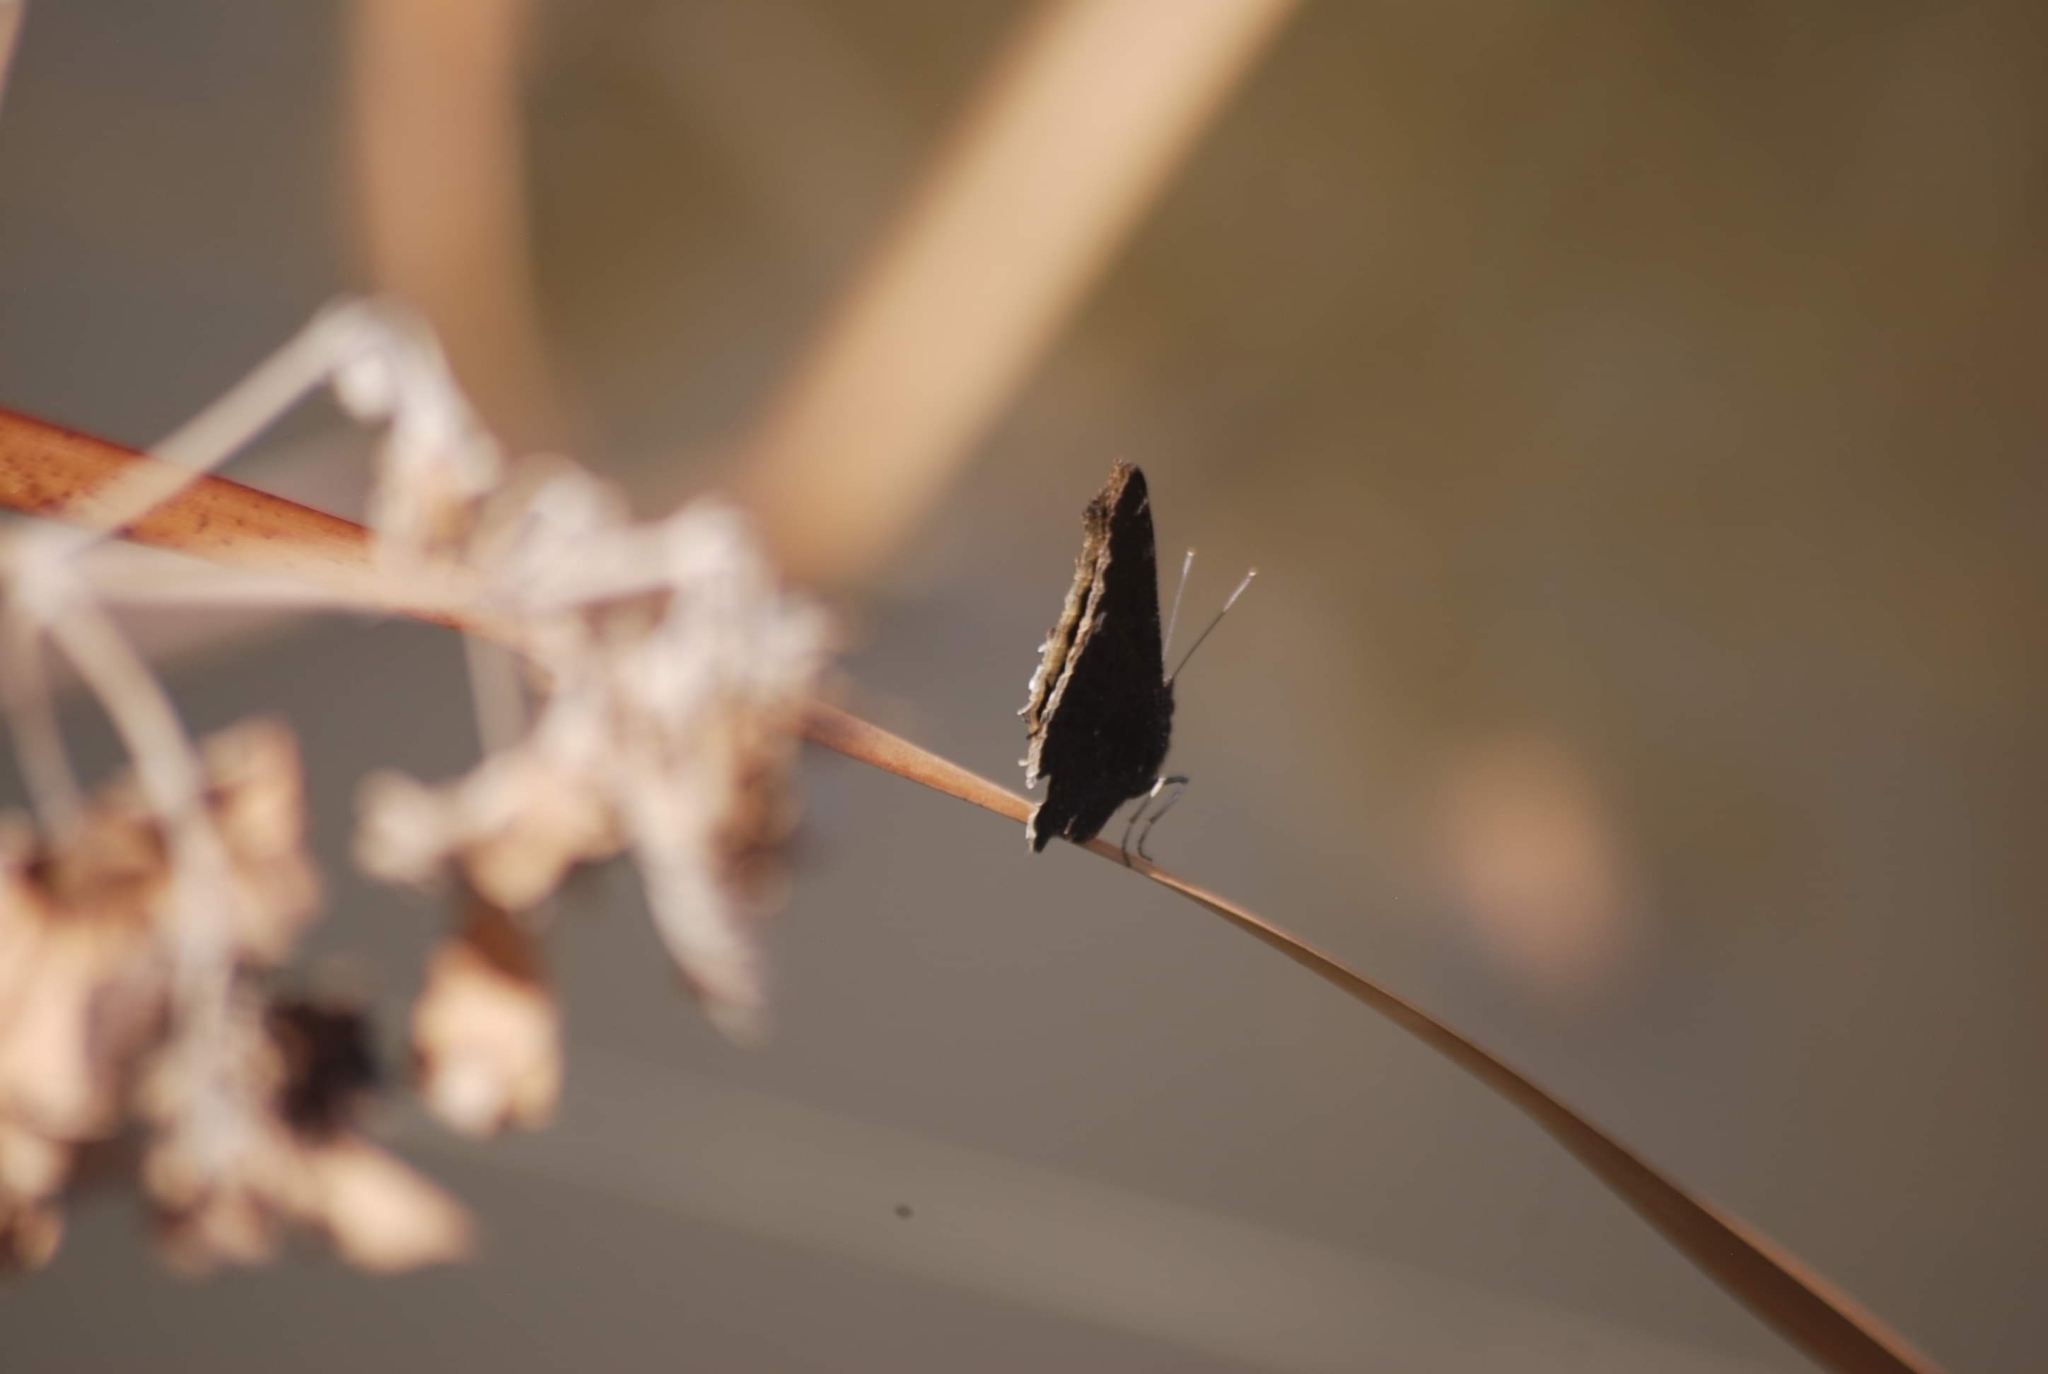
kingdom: Animalia
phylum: Arthropoda
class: Insecta
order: Lepidoptera
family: Nymphalidae
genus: Nymphalis
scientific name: Nymphalis antiopa
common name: Camberwell beauty
